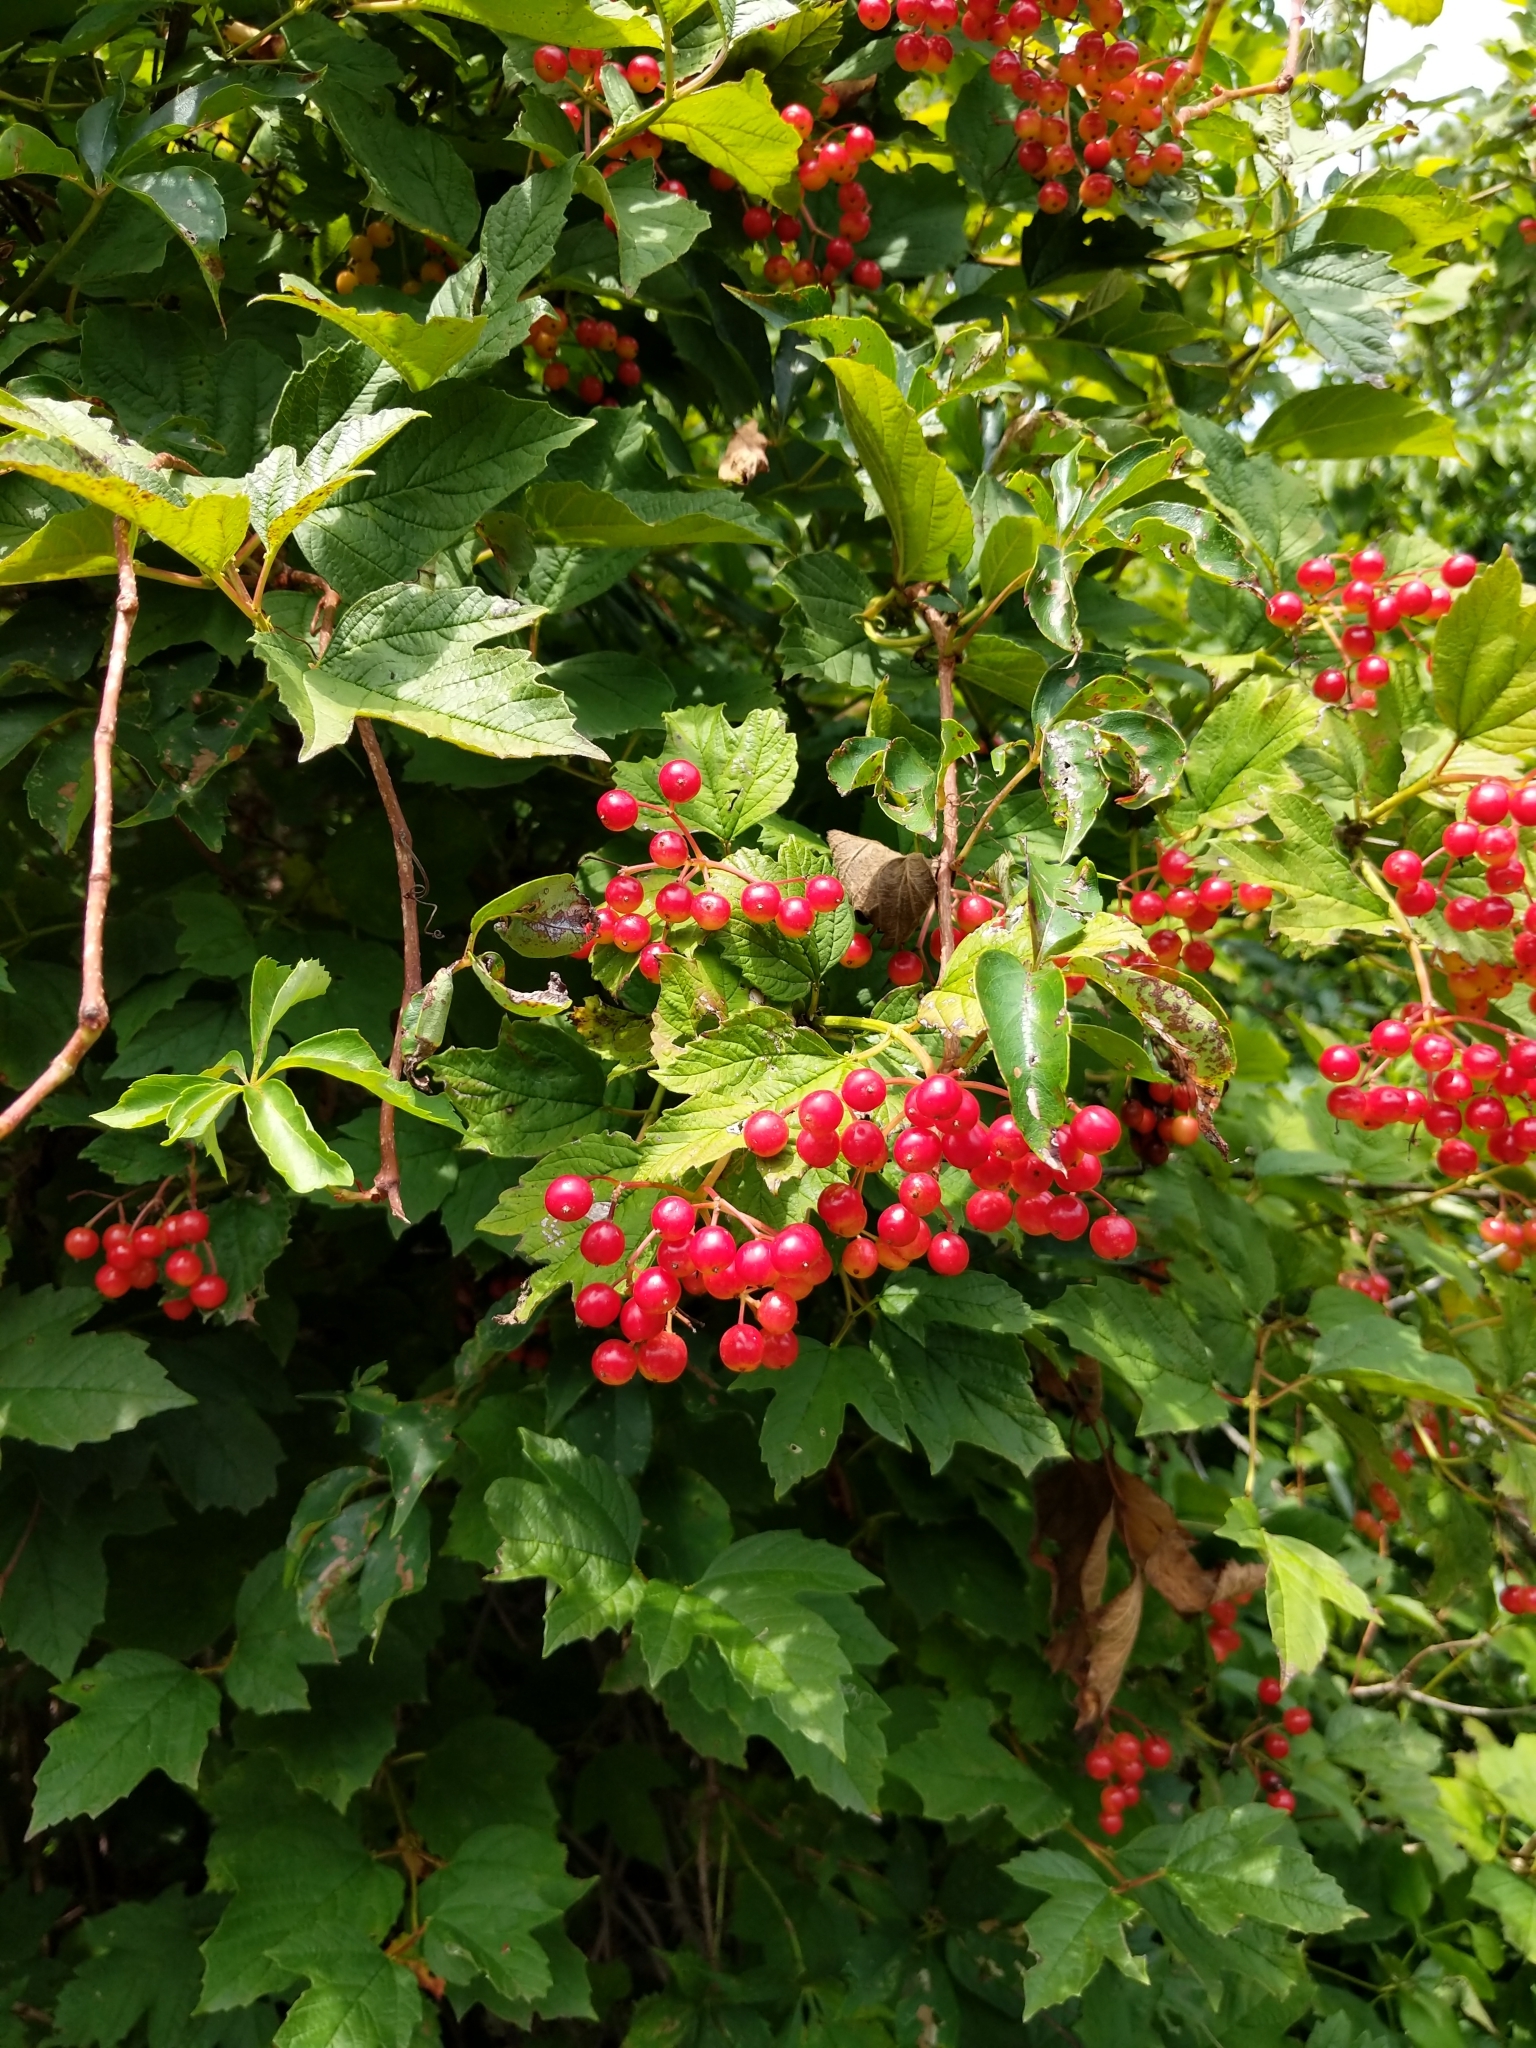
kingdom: Plantae
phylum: Tracheophyta
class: Magnoliopsida
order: Dipsacales
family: Viburnaceae
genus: Viburnum
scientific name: Viburnum opulus
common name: Guelder-rose
